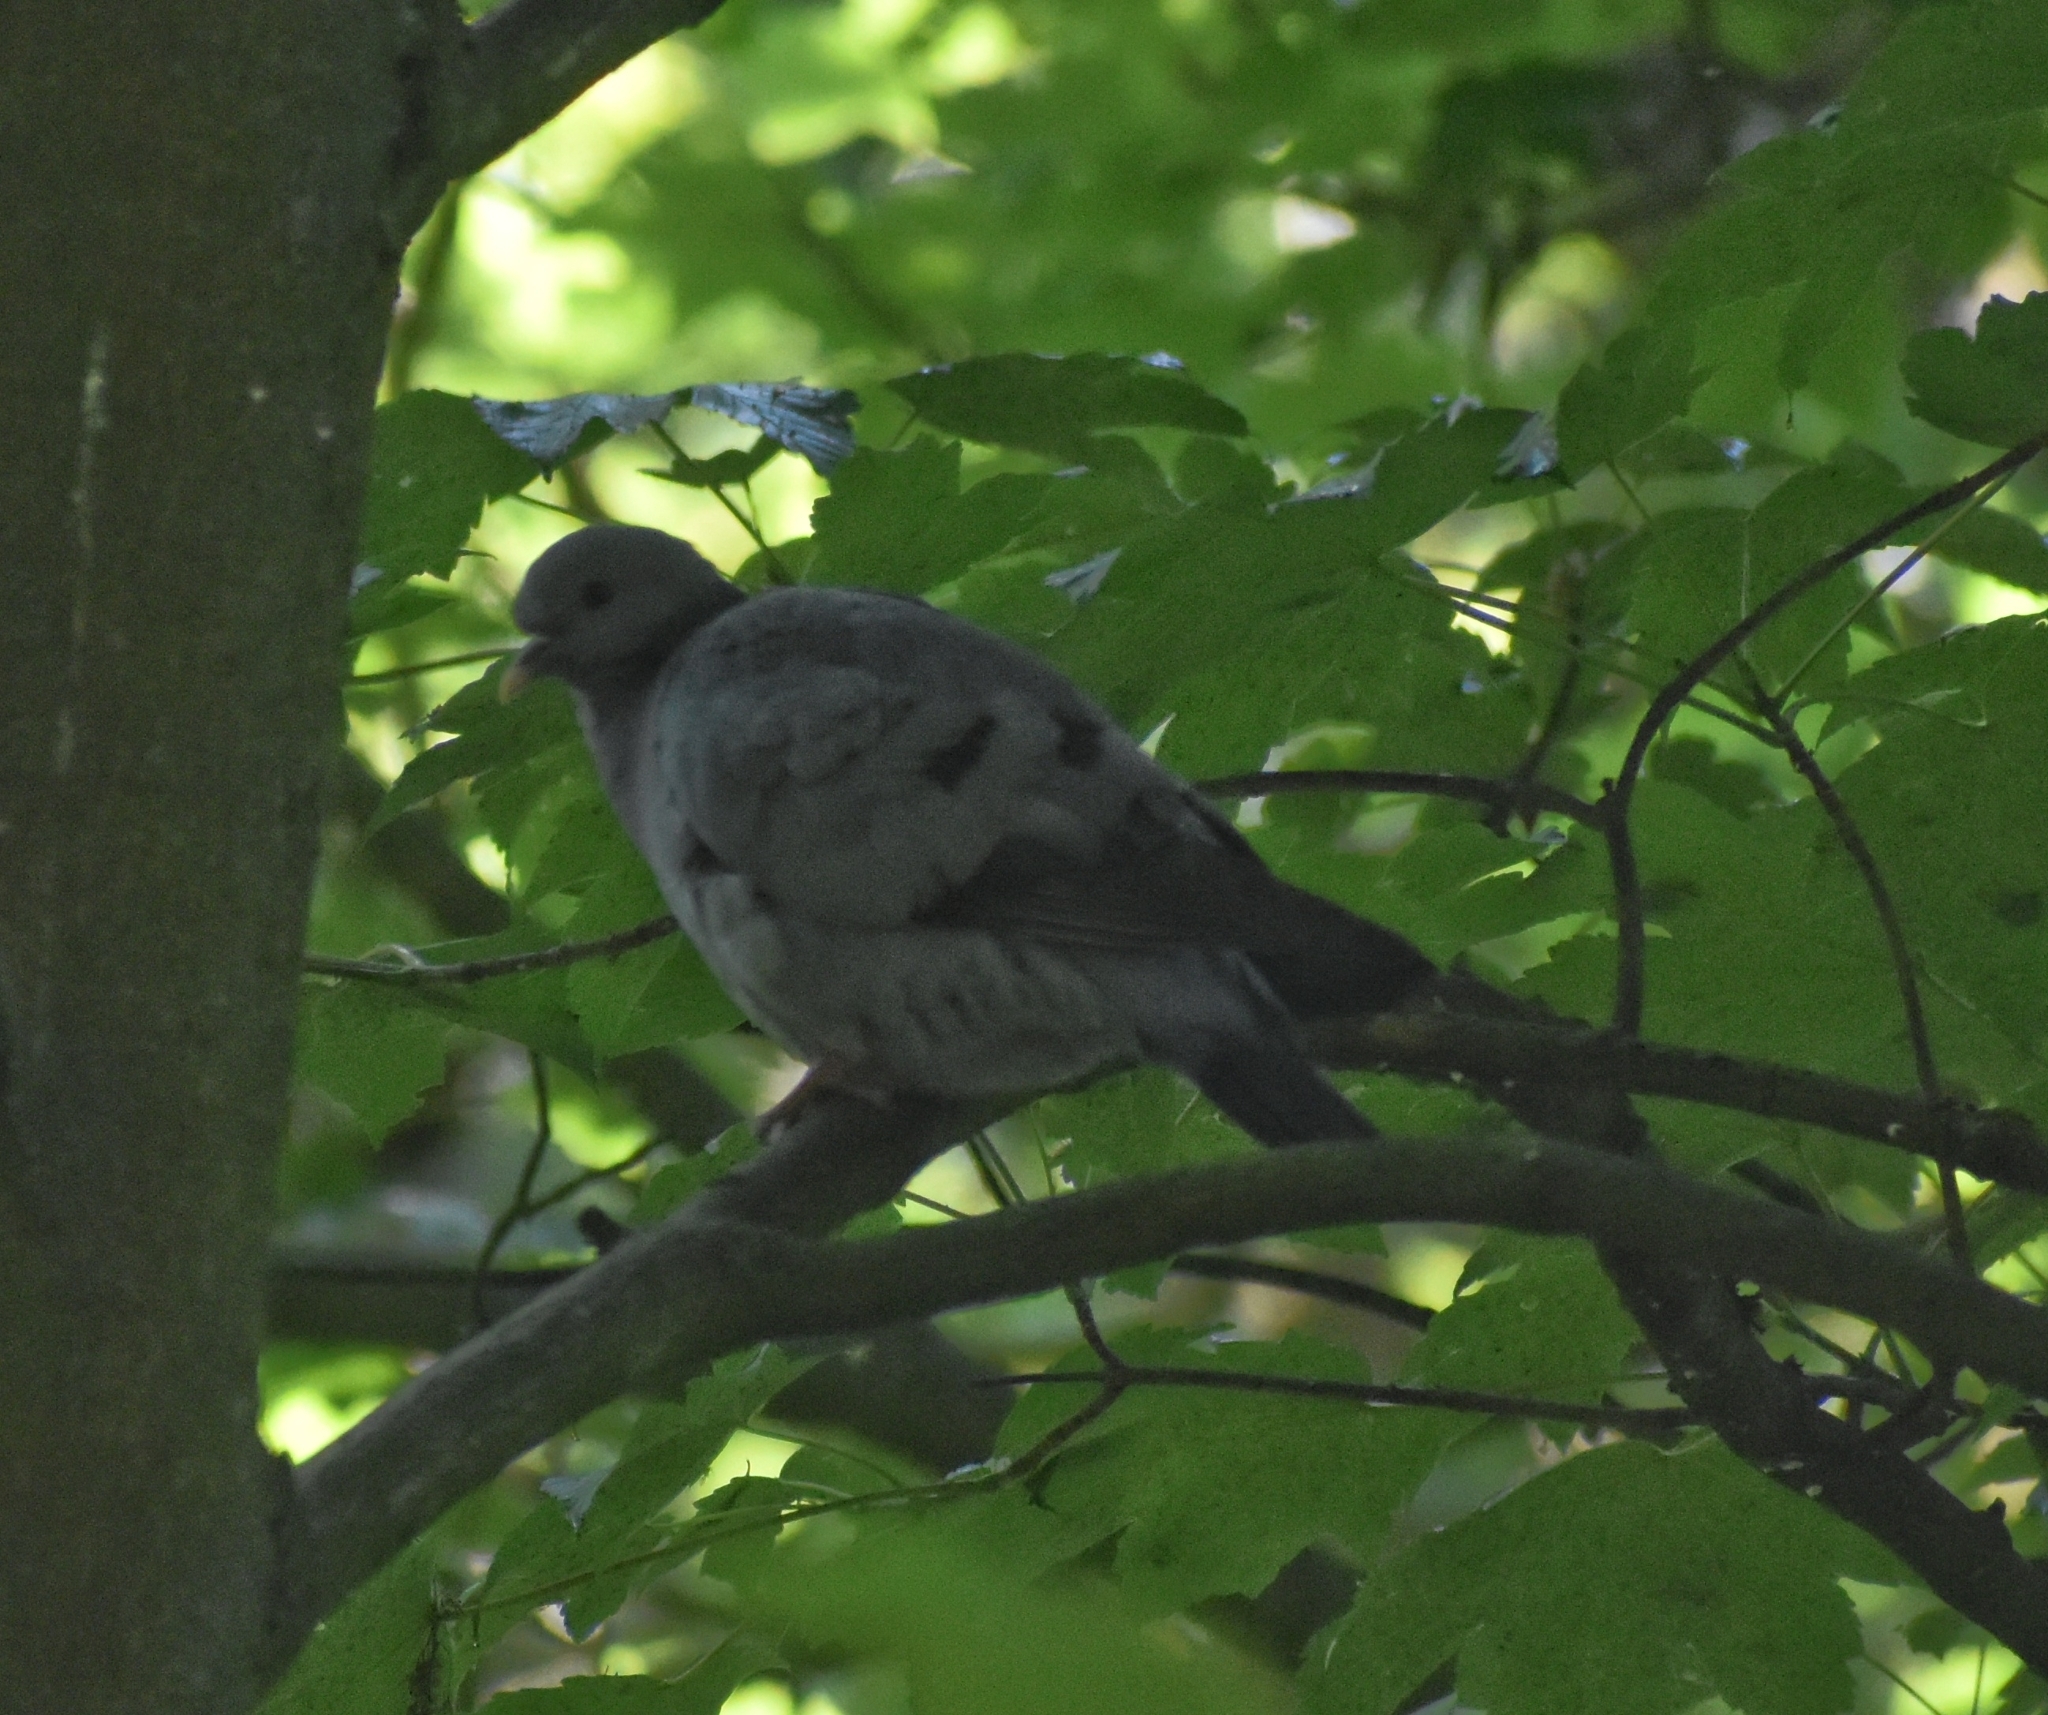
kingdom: Animalia
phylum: Chordata
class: Aves
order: Columbiformes
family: Columbidae
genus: Columba
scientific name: Columba oenas
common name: Stock dove
